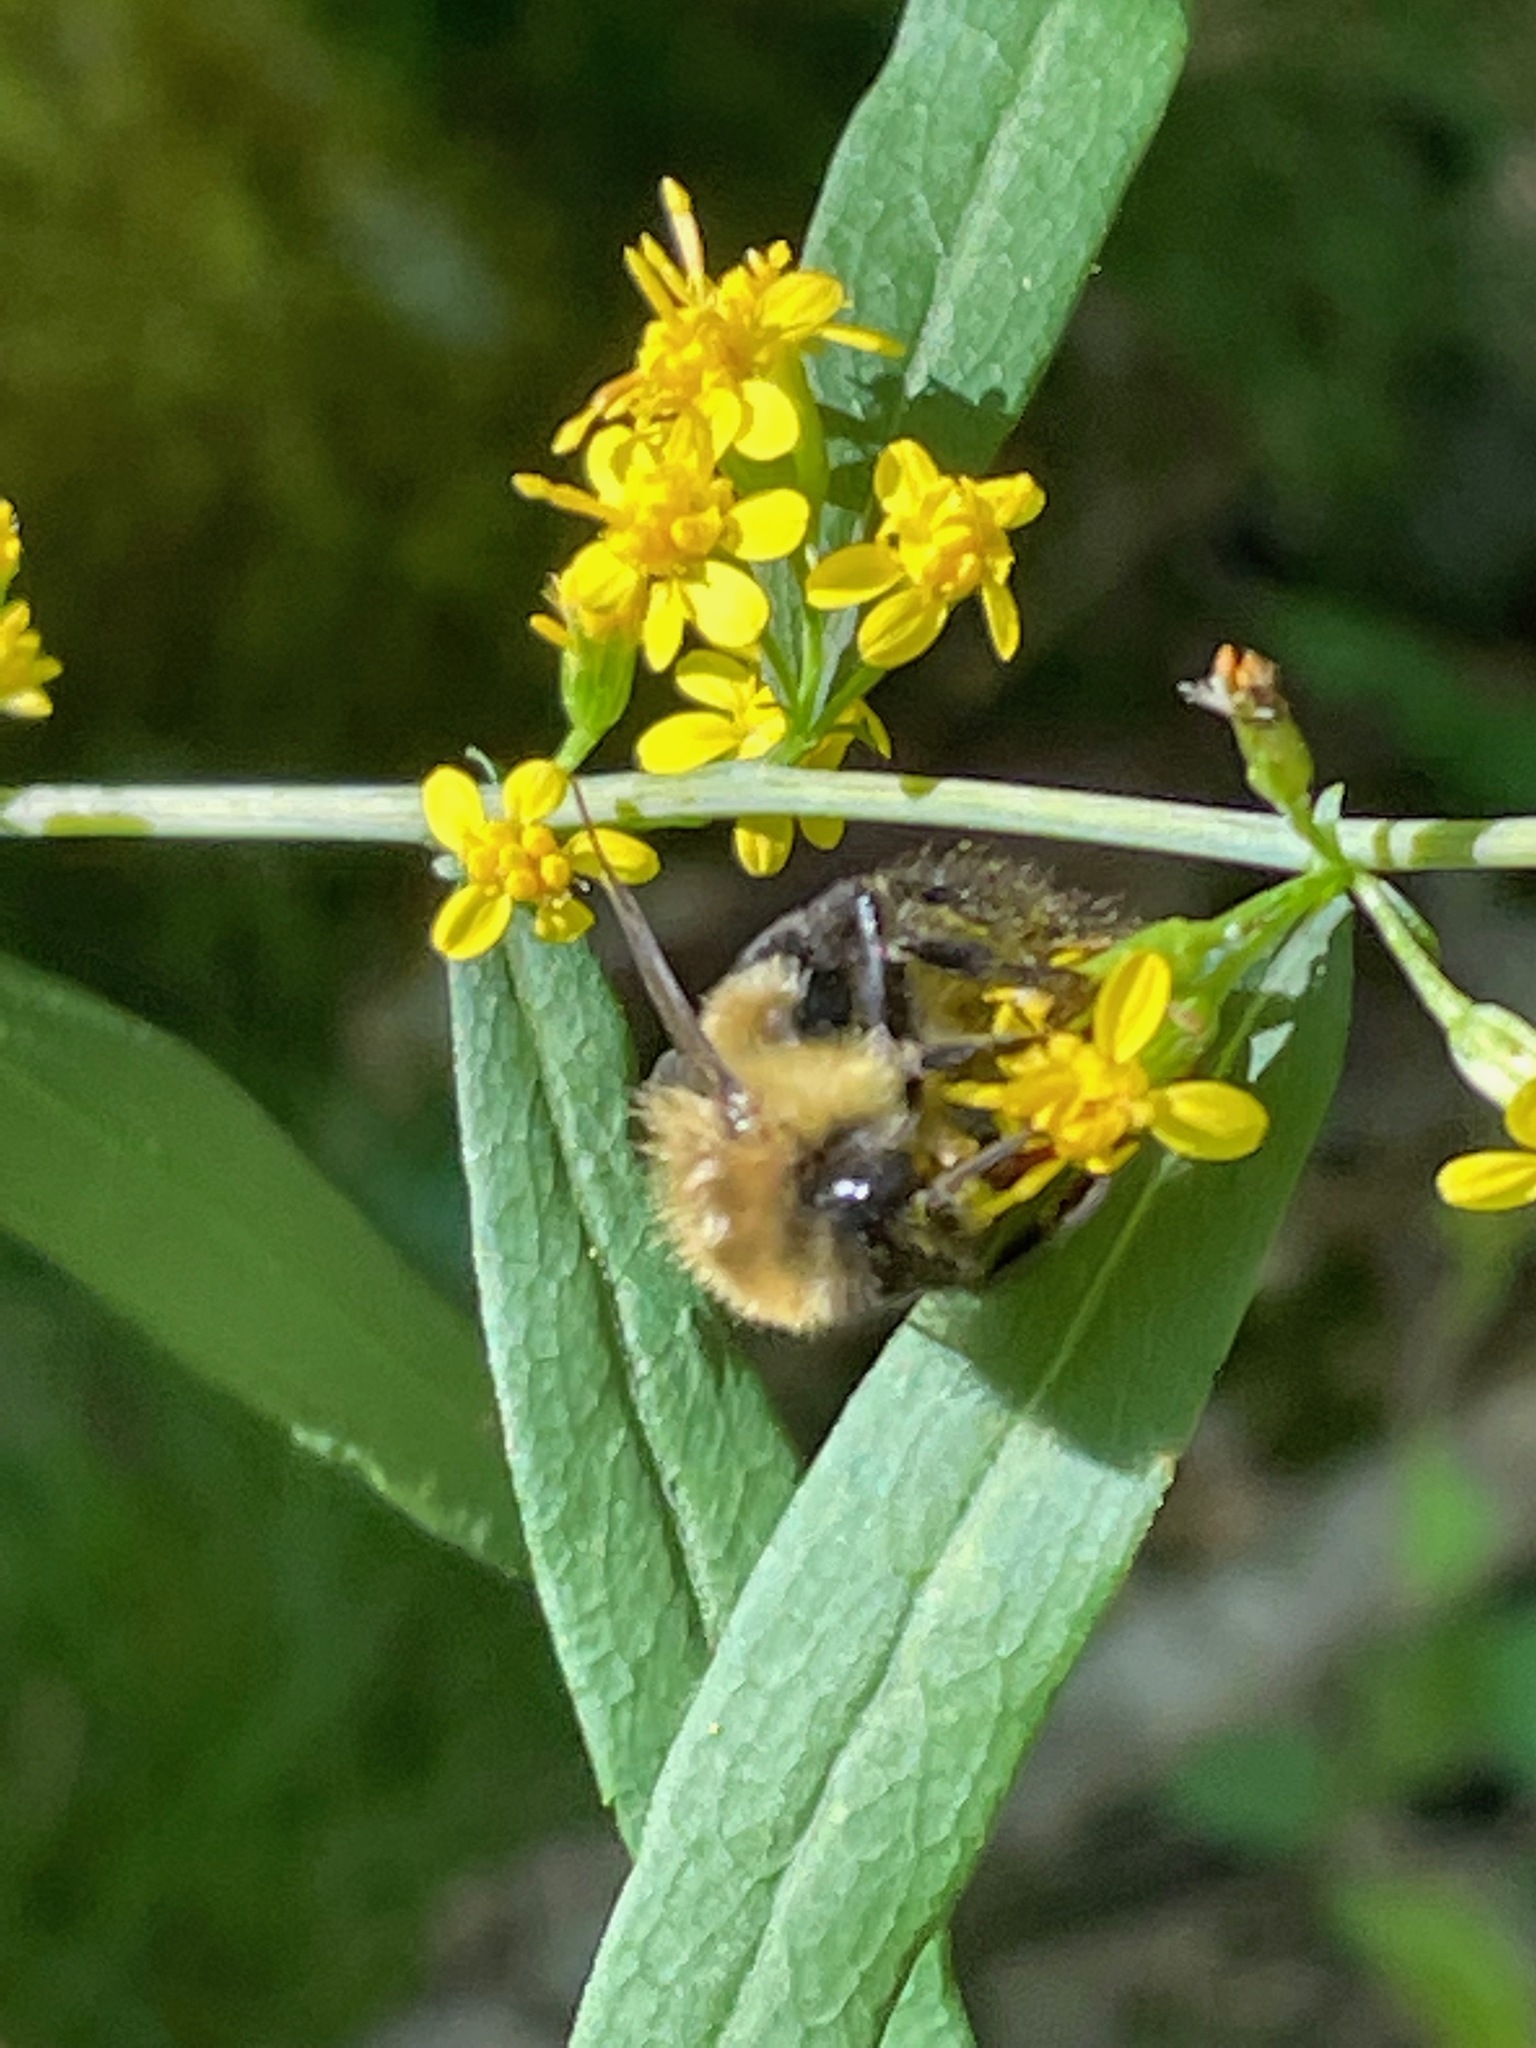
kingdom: Animalia
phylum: Arthropoda
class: Insecta
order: Hymenoptera
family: Apidae
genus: Bombus
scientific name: Bombus impatiens
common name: Common eastern bumble bee
